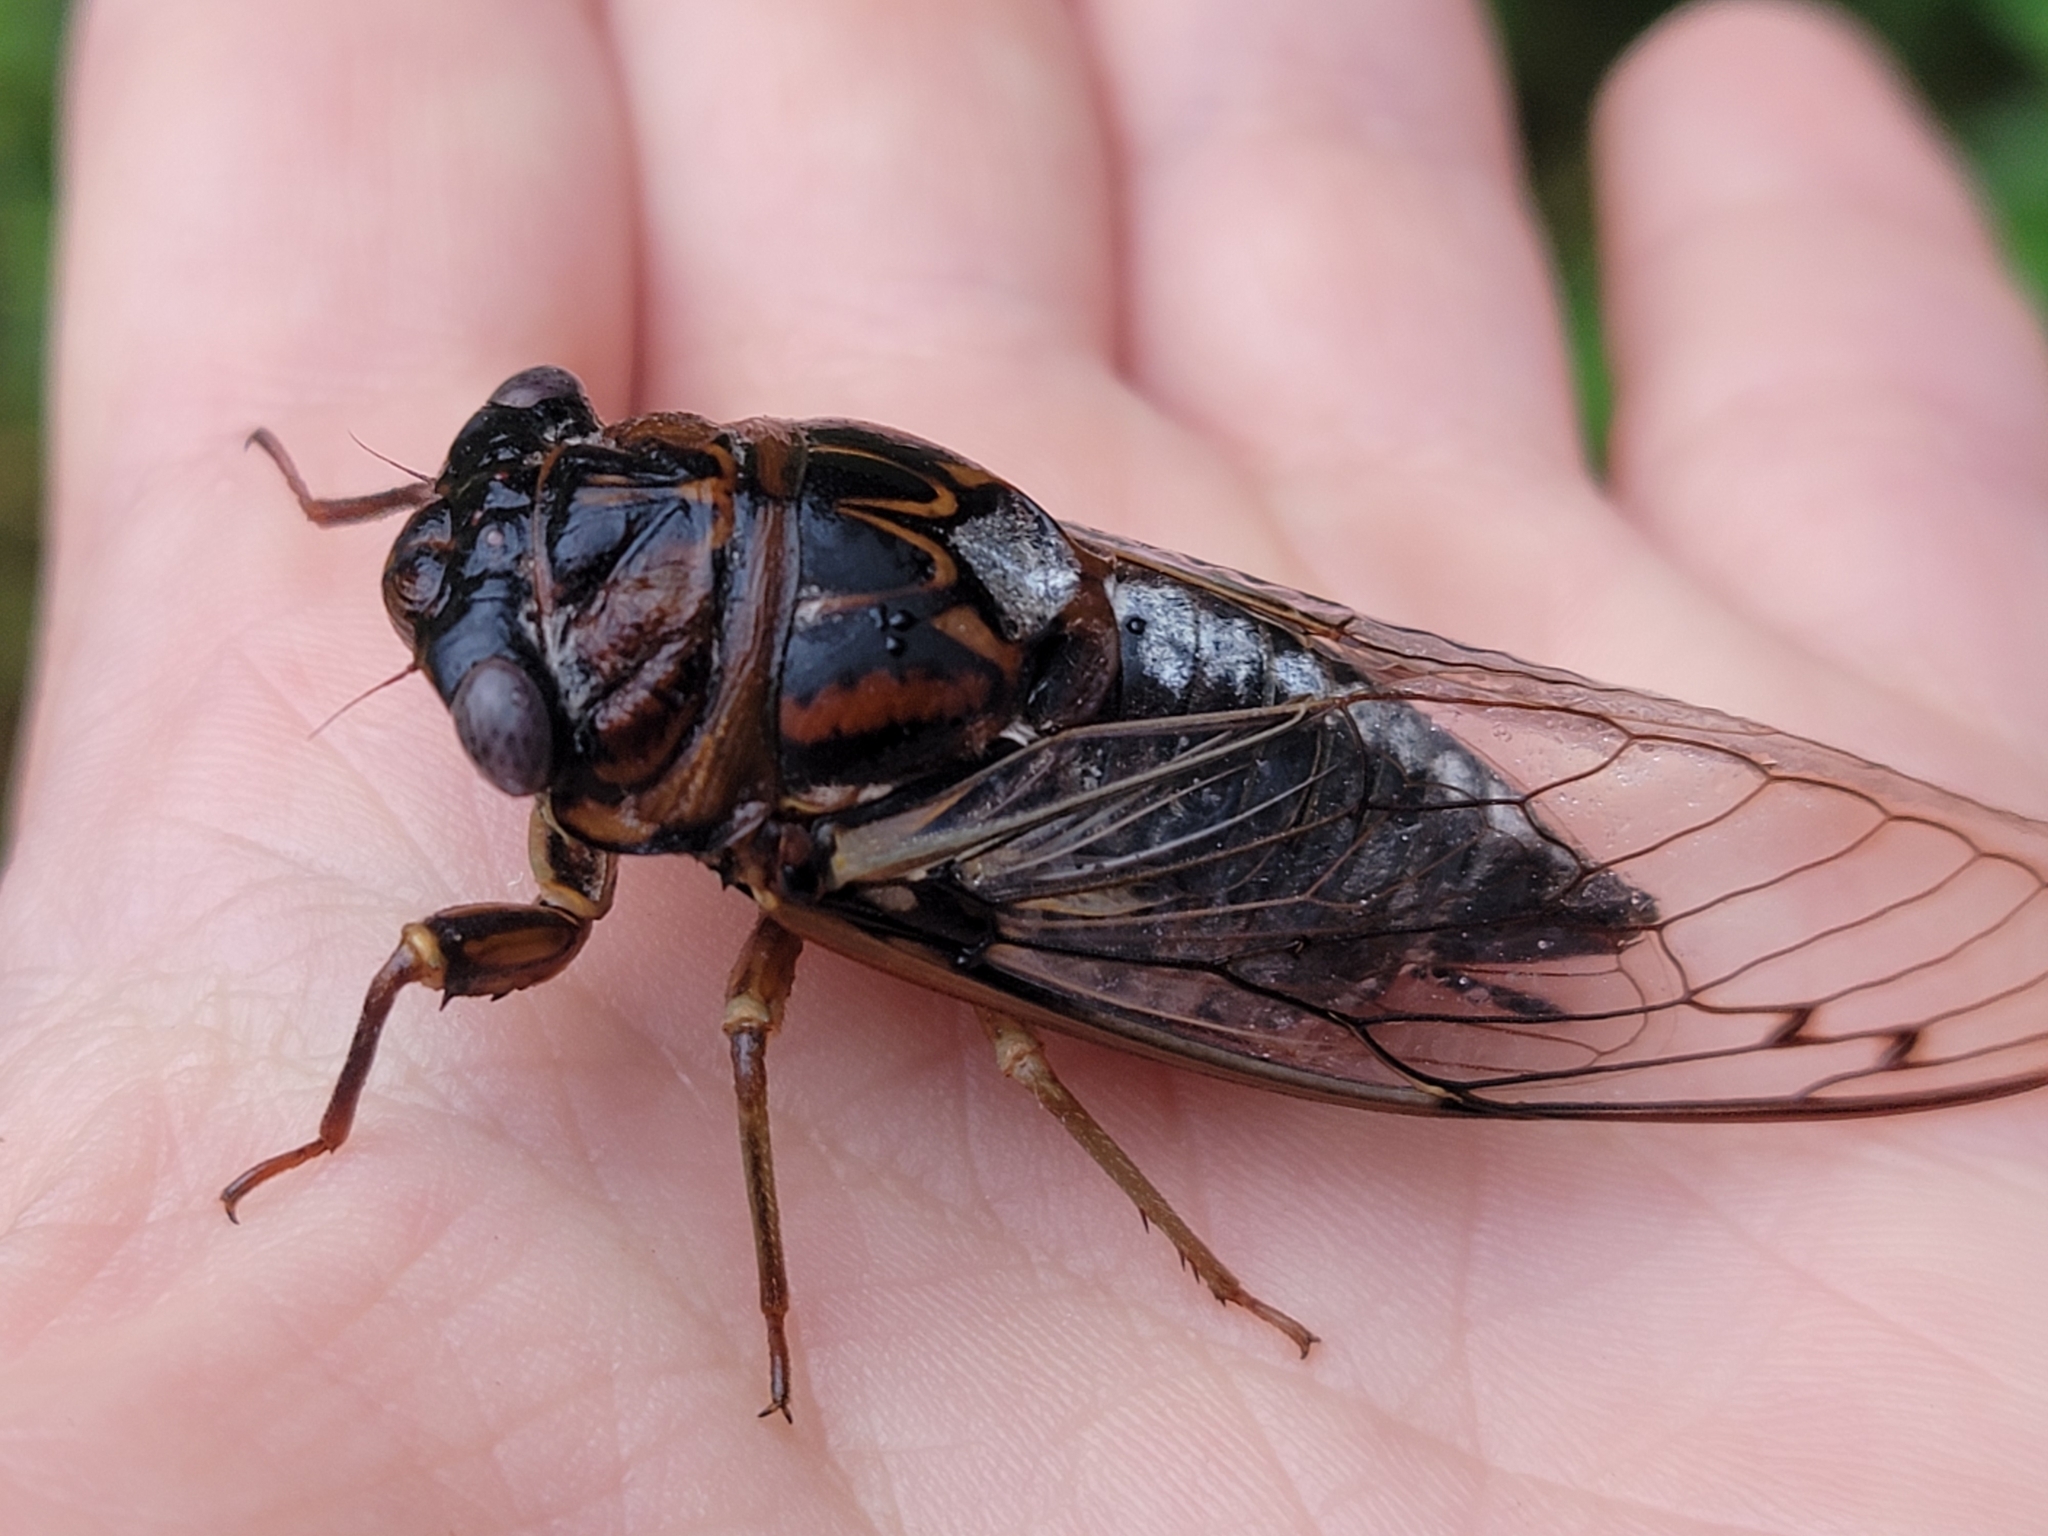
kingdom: Animalia
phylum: Arthropoda
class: Insecta
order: Hemiptera
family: Cicadidae
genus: Megatibicen
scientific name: Megatibicen figuratus
